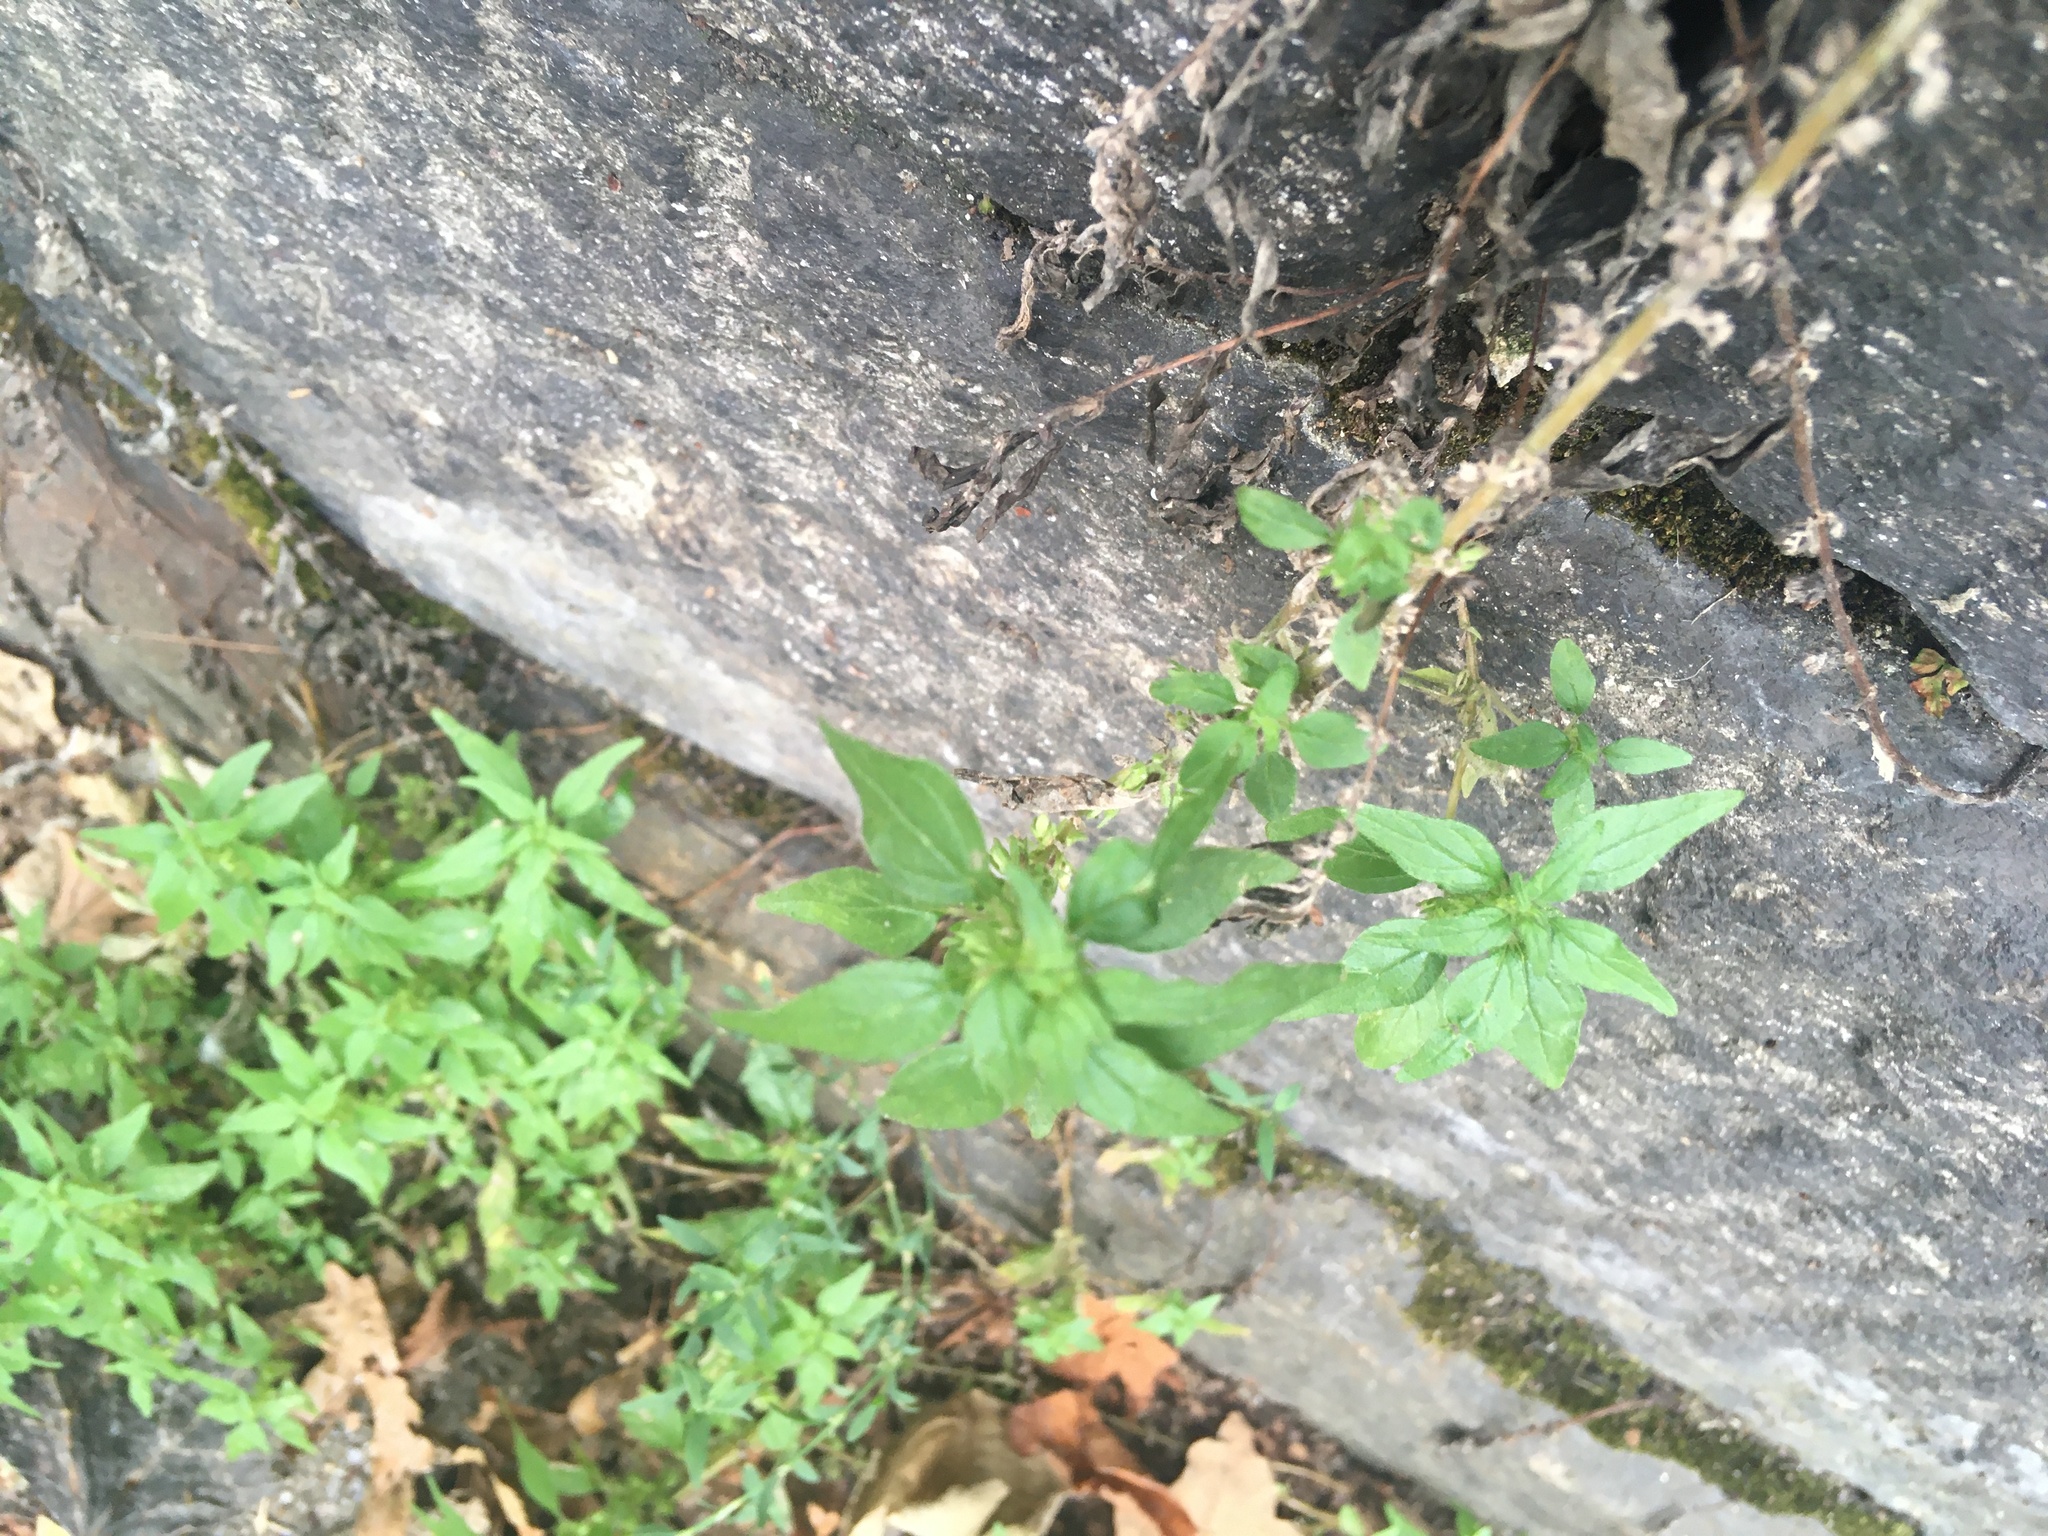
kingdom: Plantae
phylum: Tracheophyta
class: Magnoliopsida
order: Rosales
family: Urticaceae
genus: Parietaria
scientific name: Parietaria pensylvanica
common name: Pennsylvania pellitory
